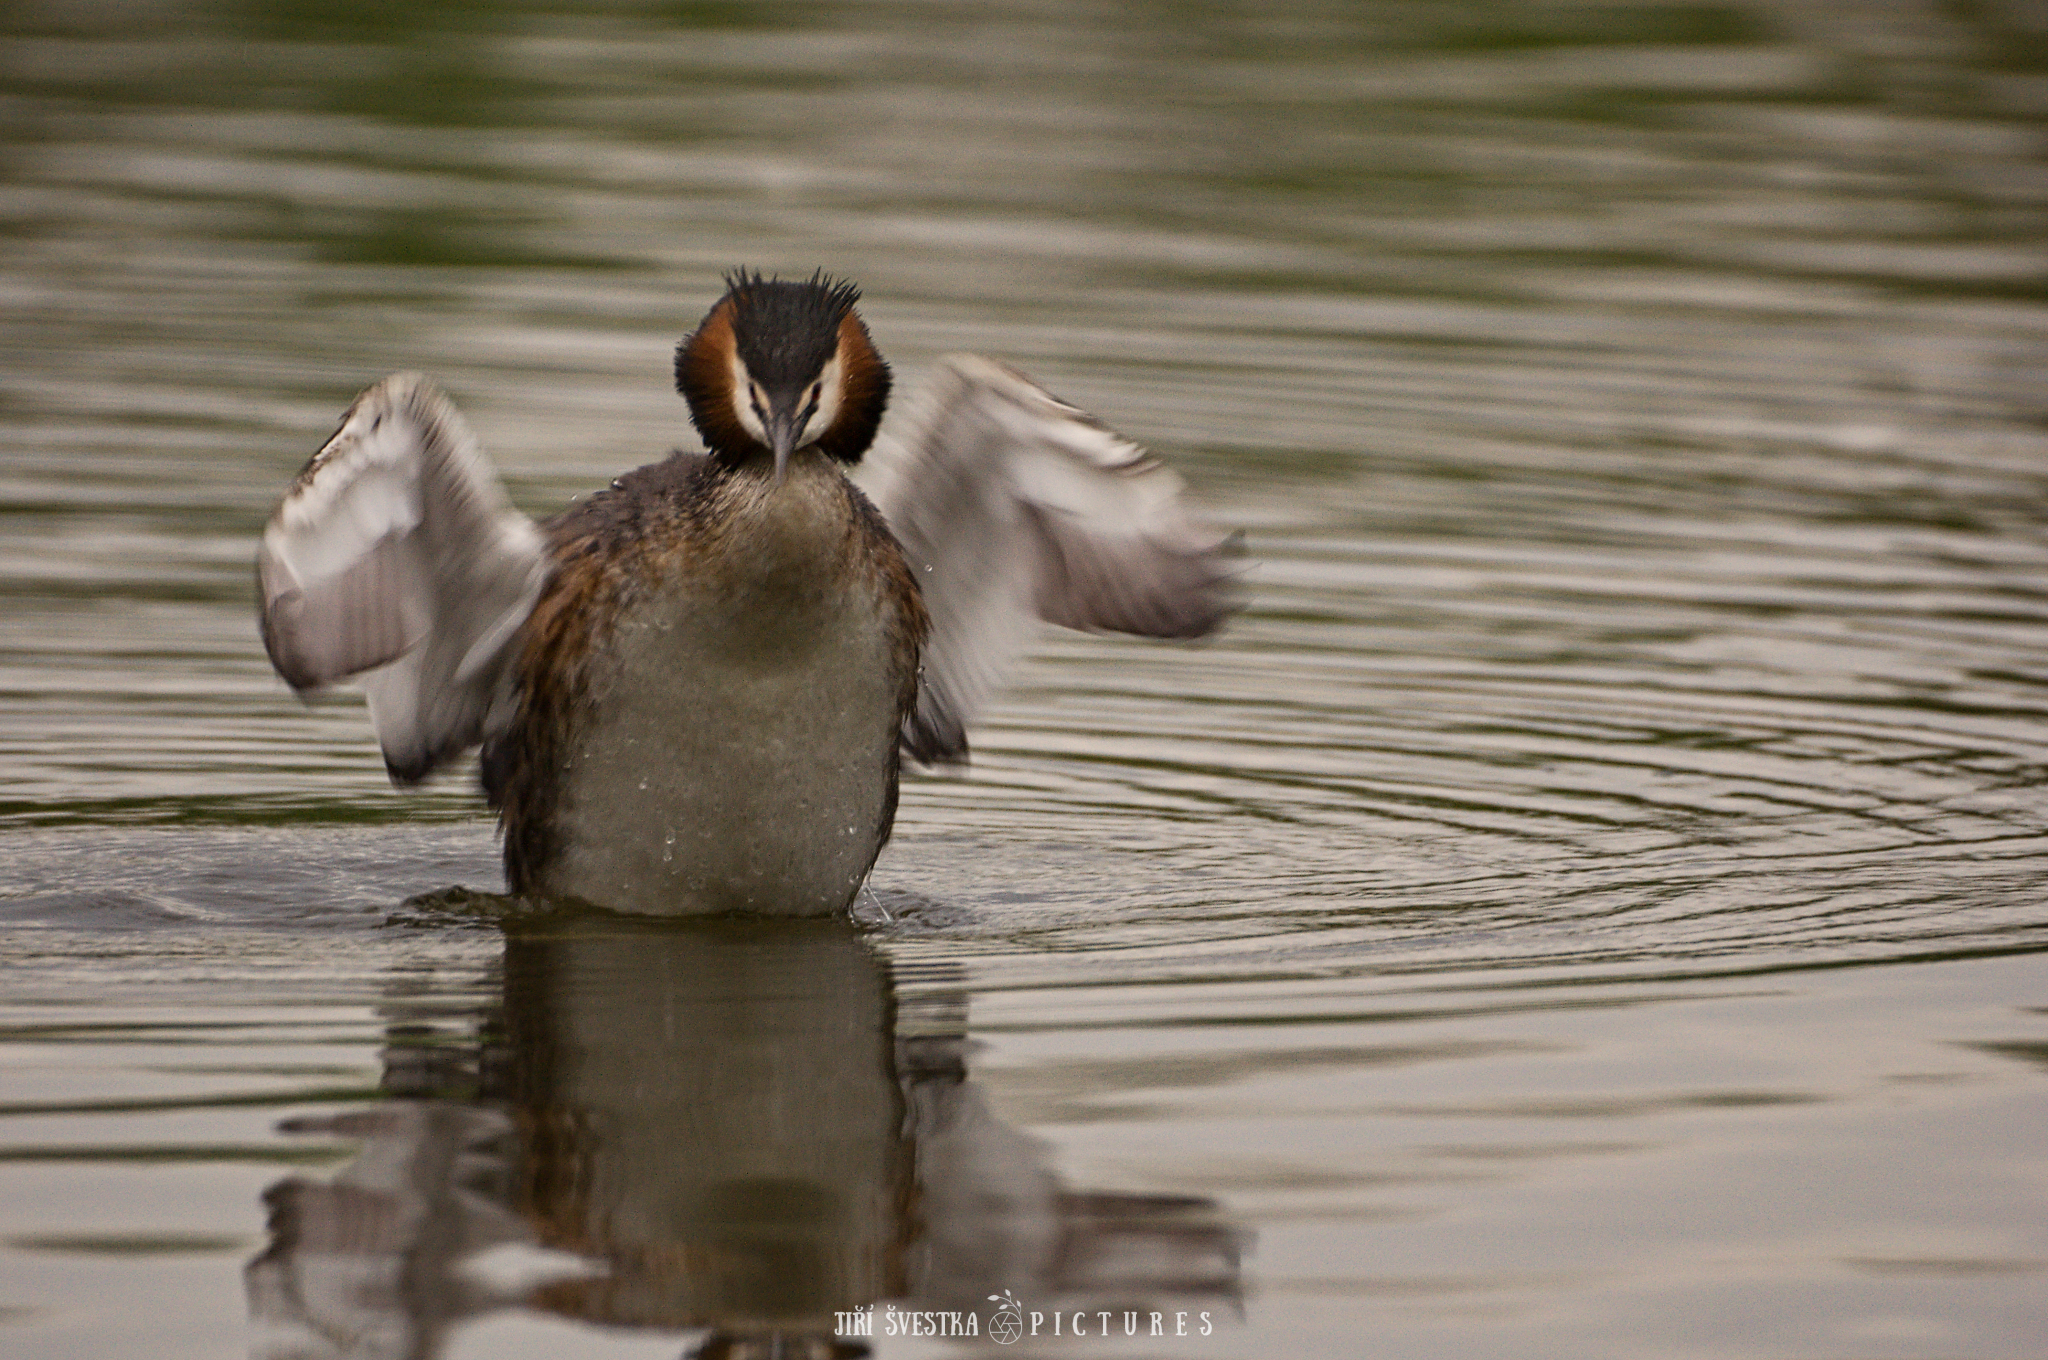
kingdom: Animalia
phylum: Chordata
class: Aves
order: Podicipediformes
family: Podicipedidae
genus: Podiceps
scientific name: Podiceps cristatus
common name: Great crested grebe
